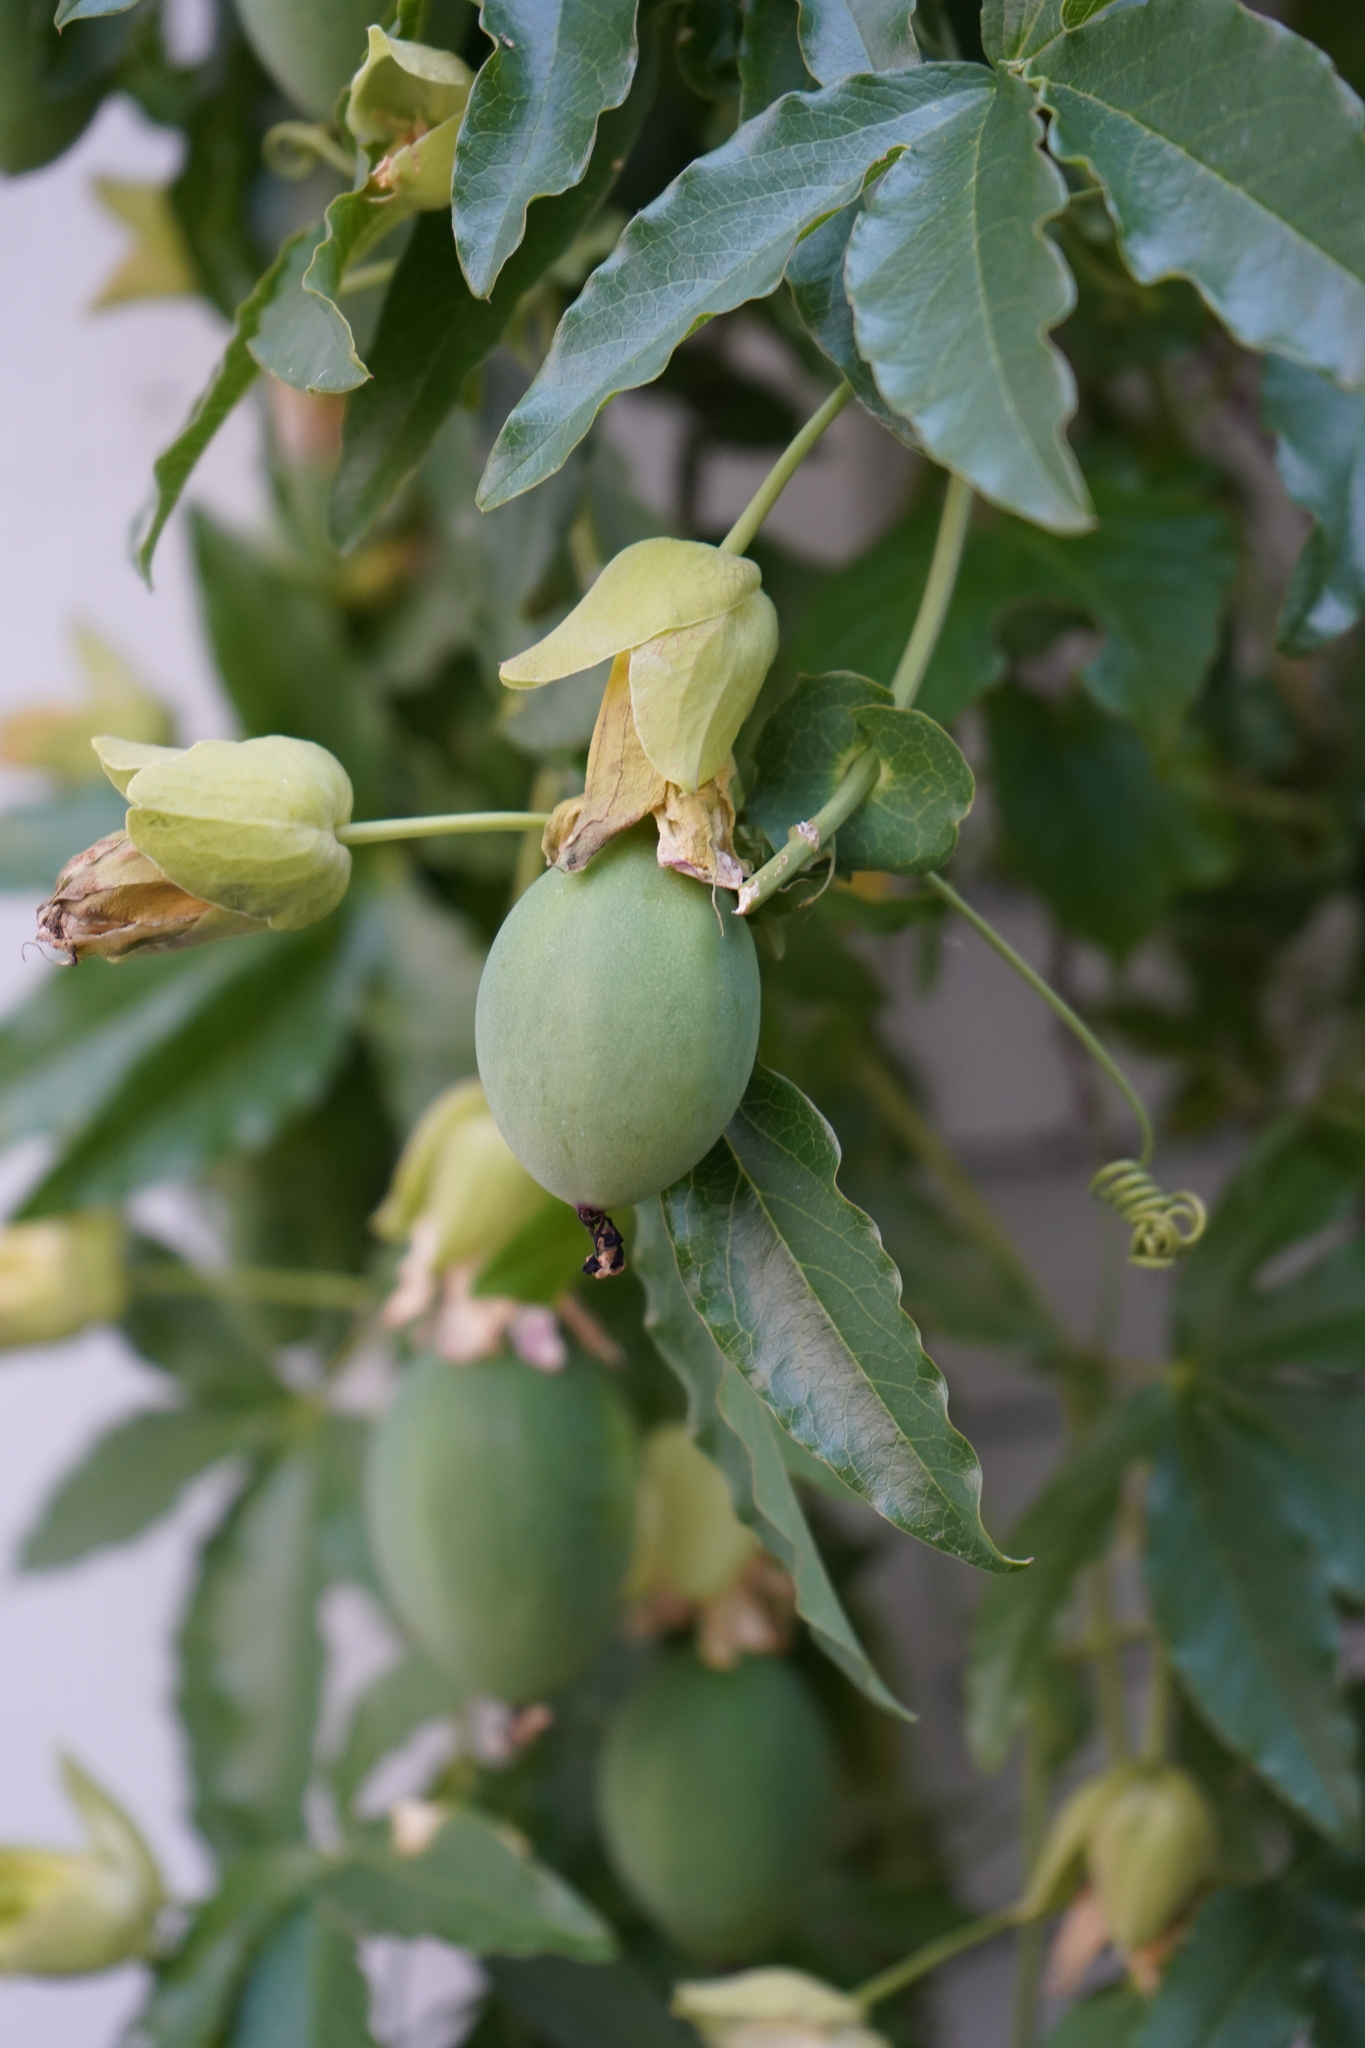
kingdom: Plantae
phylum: Tracheophyta
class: Magnoliopsida
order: Malpighiales
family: Passifloraceae
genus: Passiflora
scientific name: Passiflora caerulea
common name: Blue passionflower
